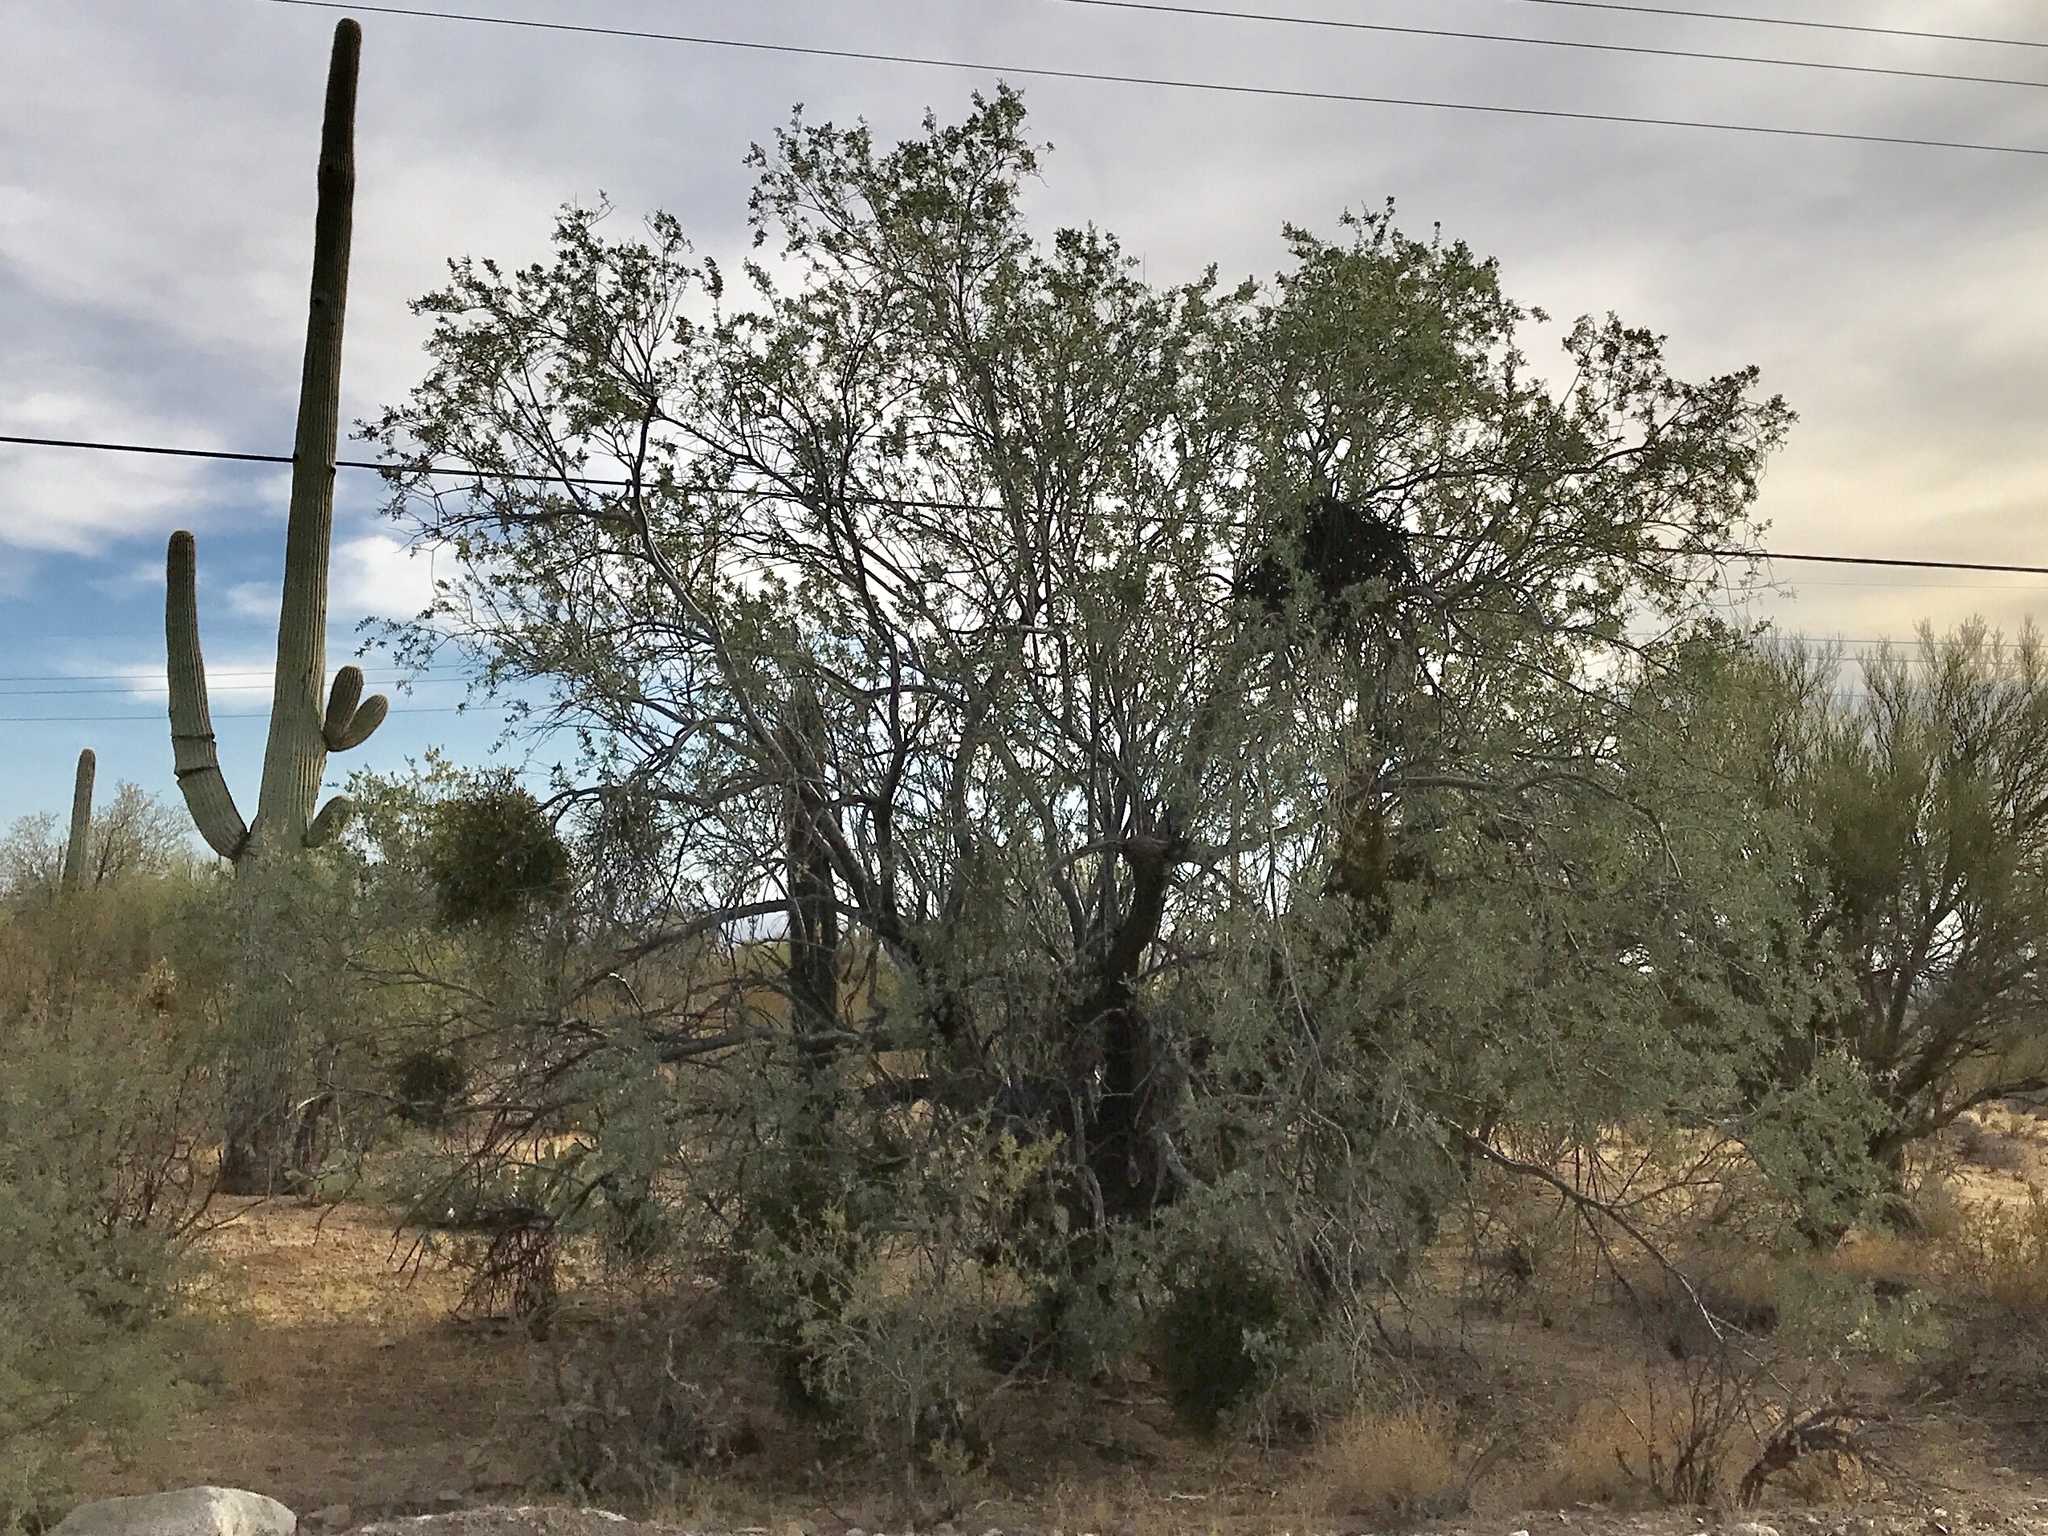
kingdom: Plantae
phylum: Tracheophyta
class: Magnoliopsida
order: Fabales
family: Fabaceae
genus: Olneya
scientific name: Olneya tesota
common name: Desert ironwood
